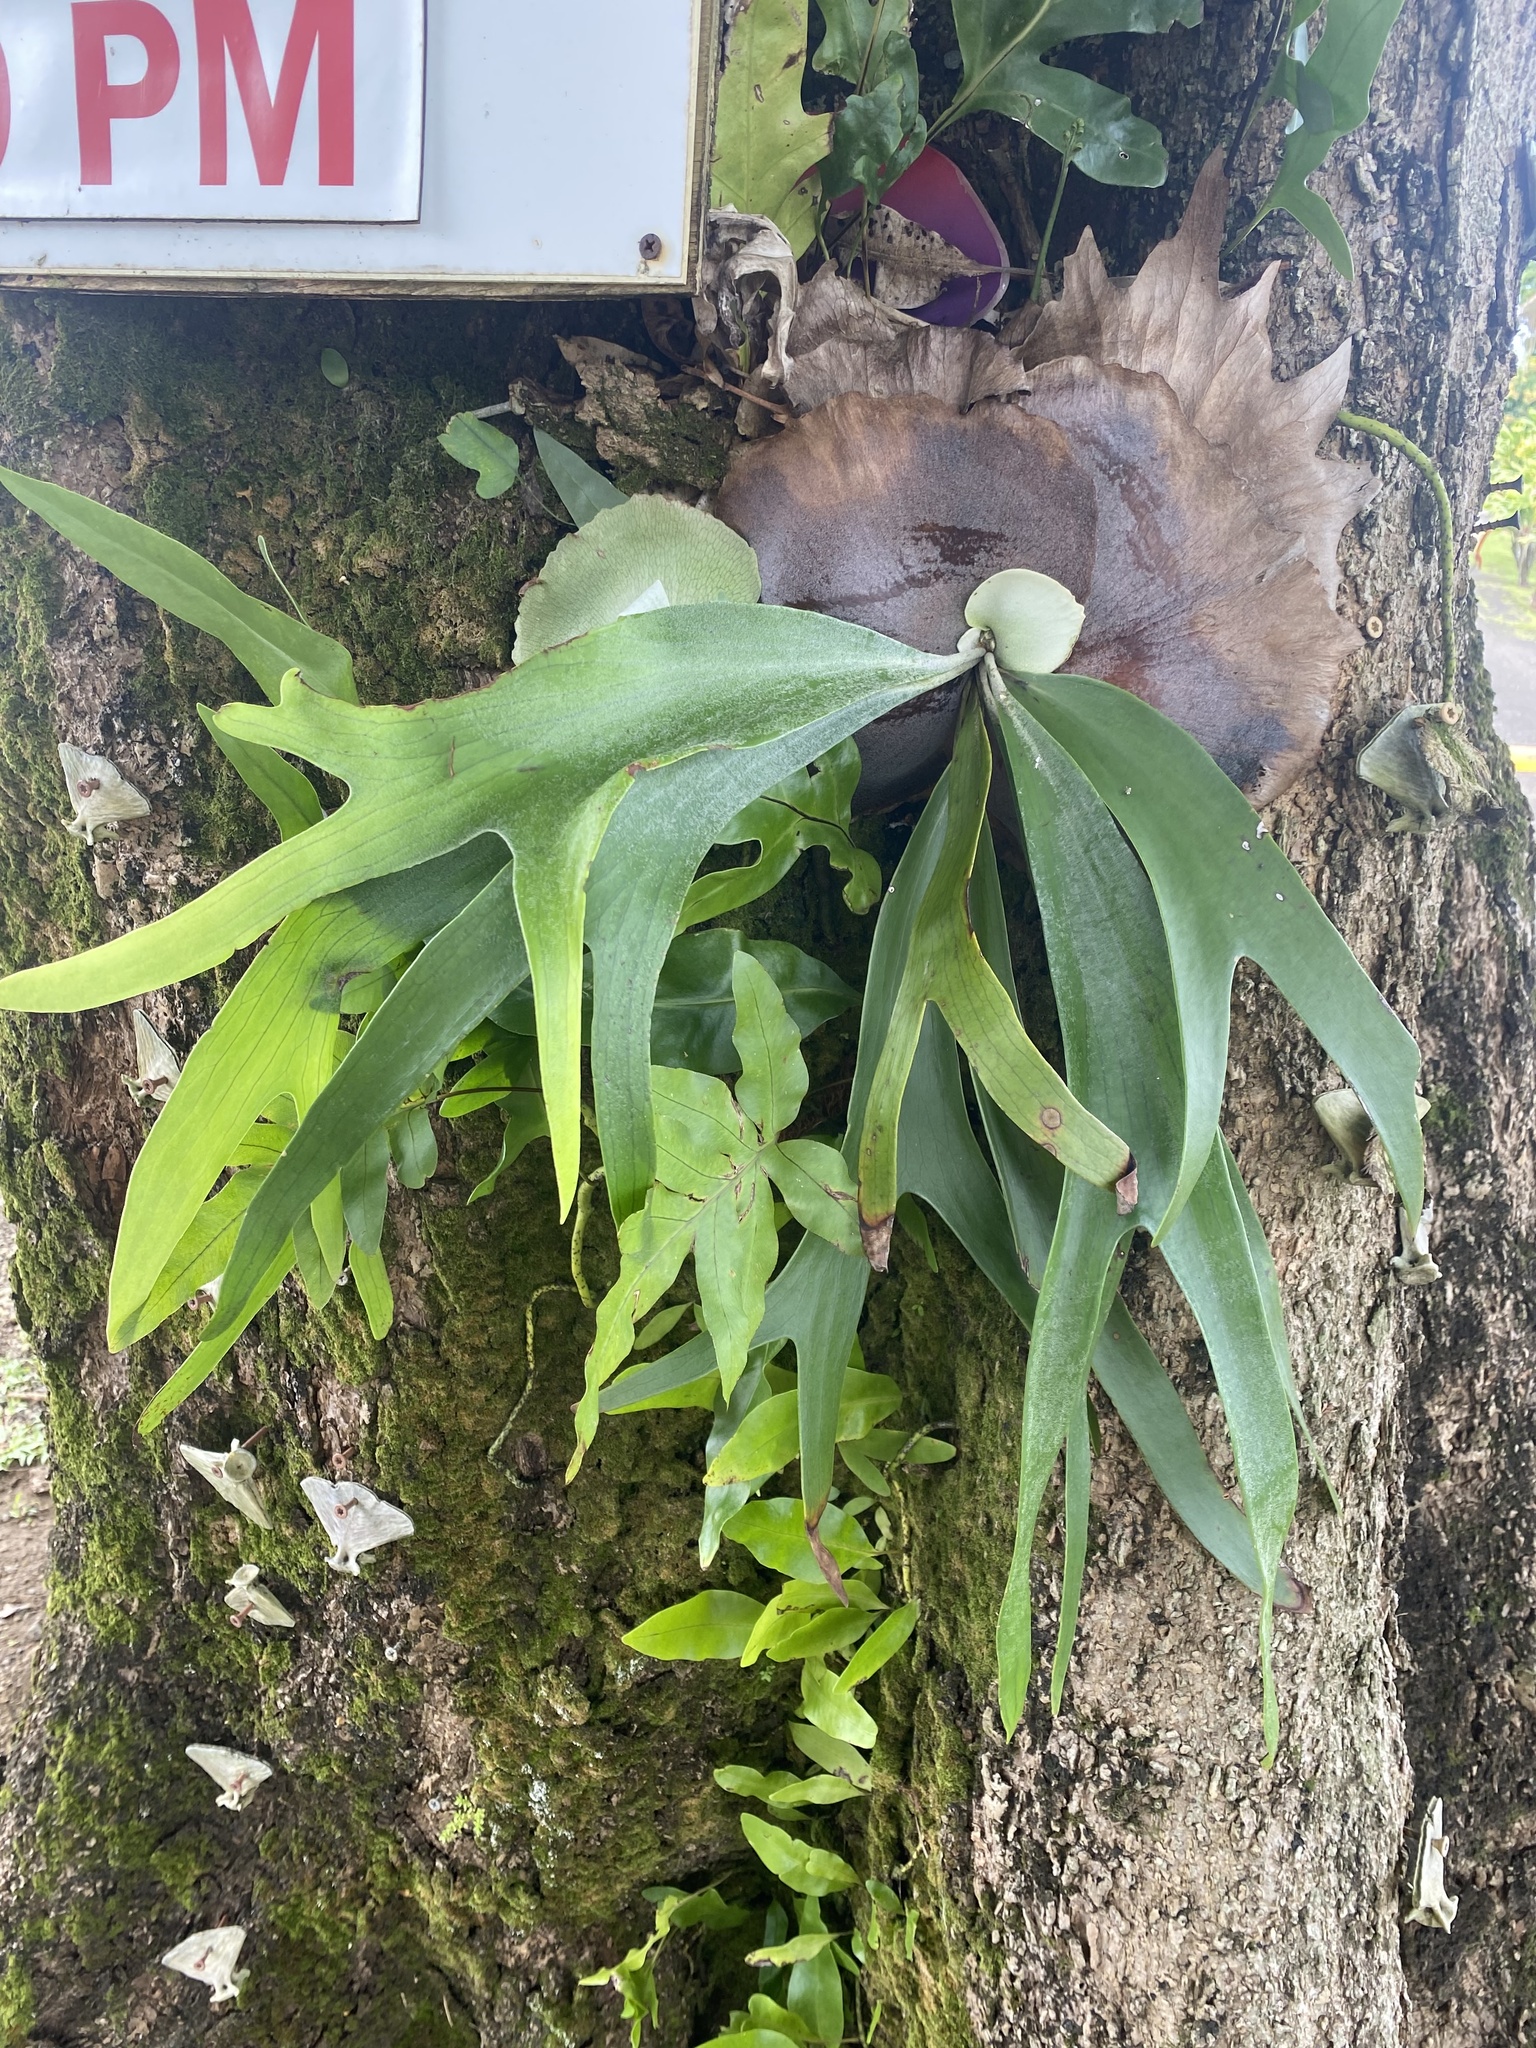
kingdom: Plantae
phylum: Tracheophyta
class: Polypodiopsida
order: Polypodiales
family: Polypodiaceae
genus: Platycerium
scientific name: Platycerium bifurcatum
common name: Elkhorn fern
